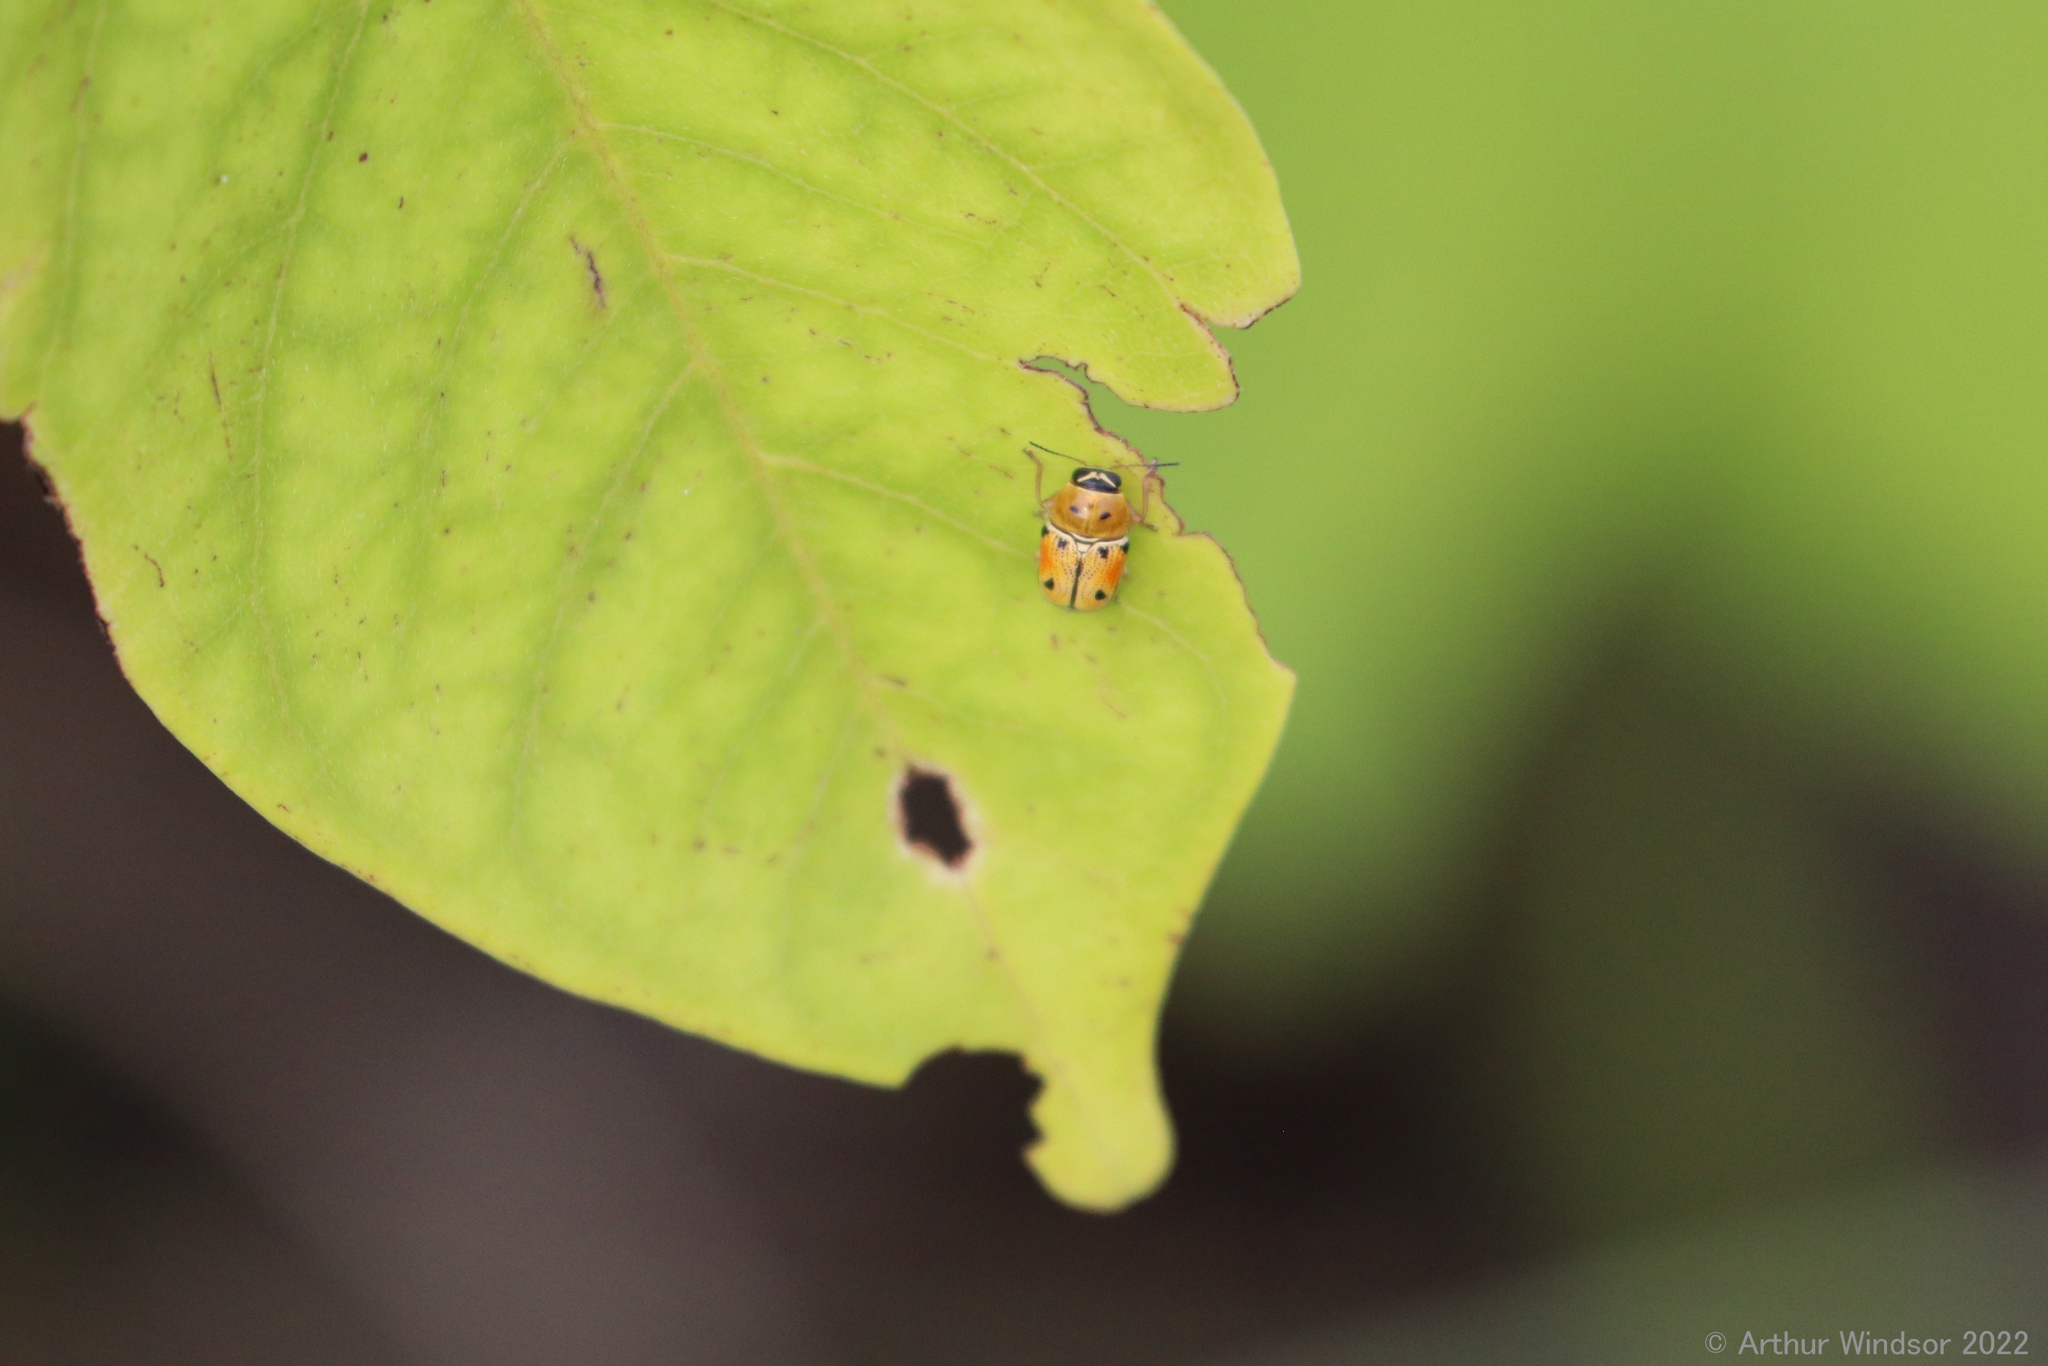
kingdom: Animalia
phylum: Arthropoda
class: Insecta
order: Coleoptera
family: Chrysomelidae
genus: Griburius
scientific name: Griburius larvatus
